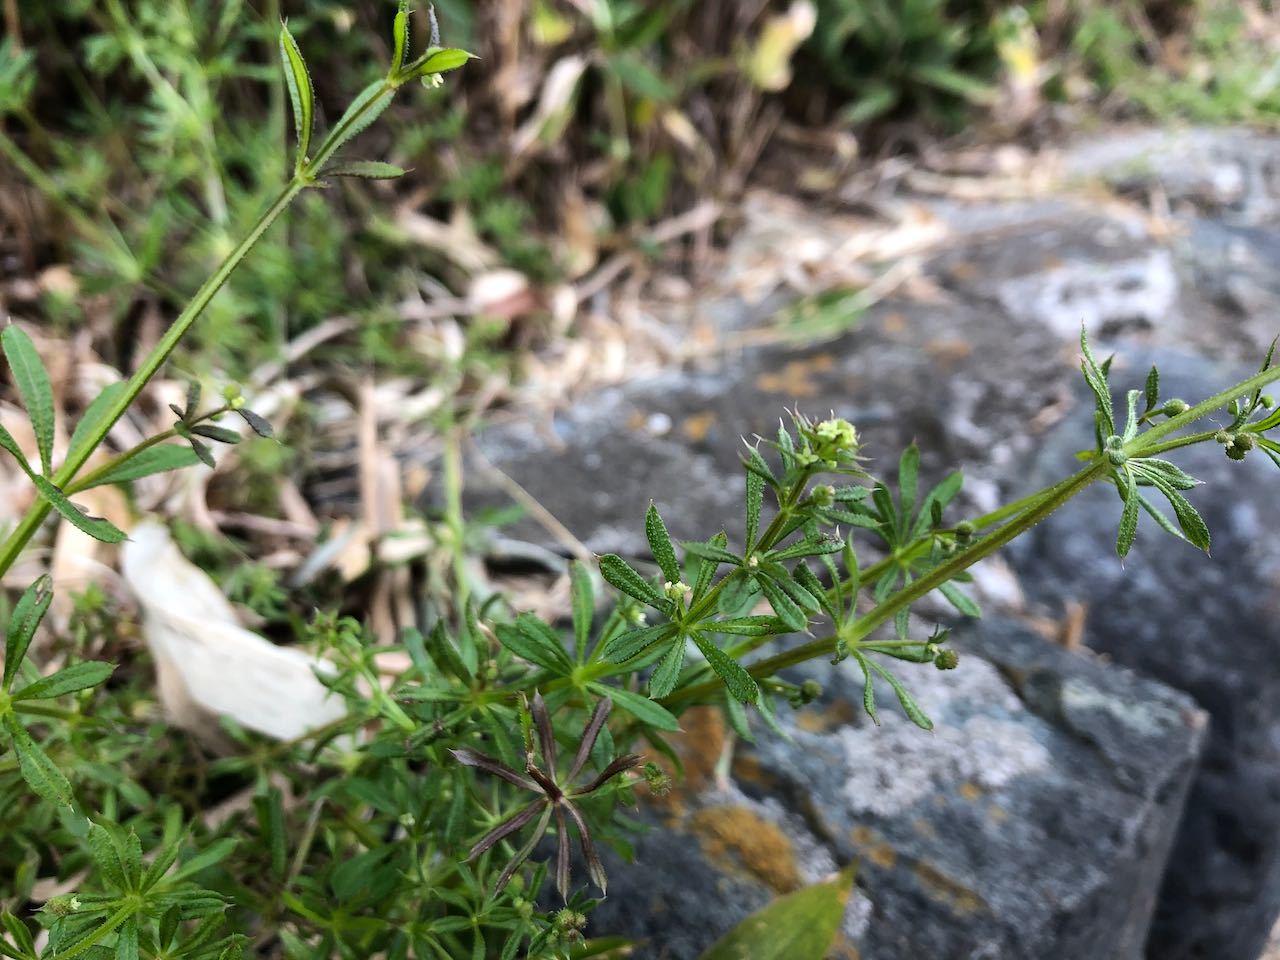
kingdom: Plantae
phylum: Tracheophyta
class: Magnoliopsida
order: Gentianales
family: Rubiaceae
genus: Galium
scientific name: Galium
